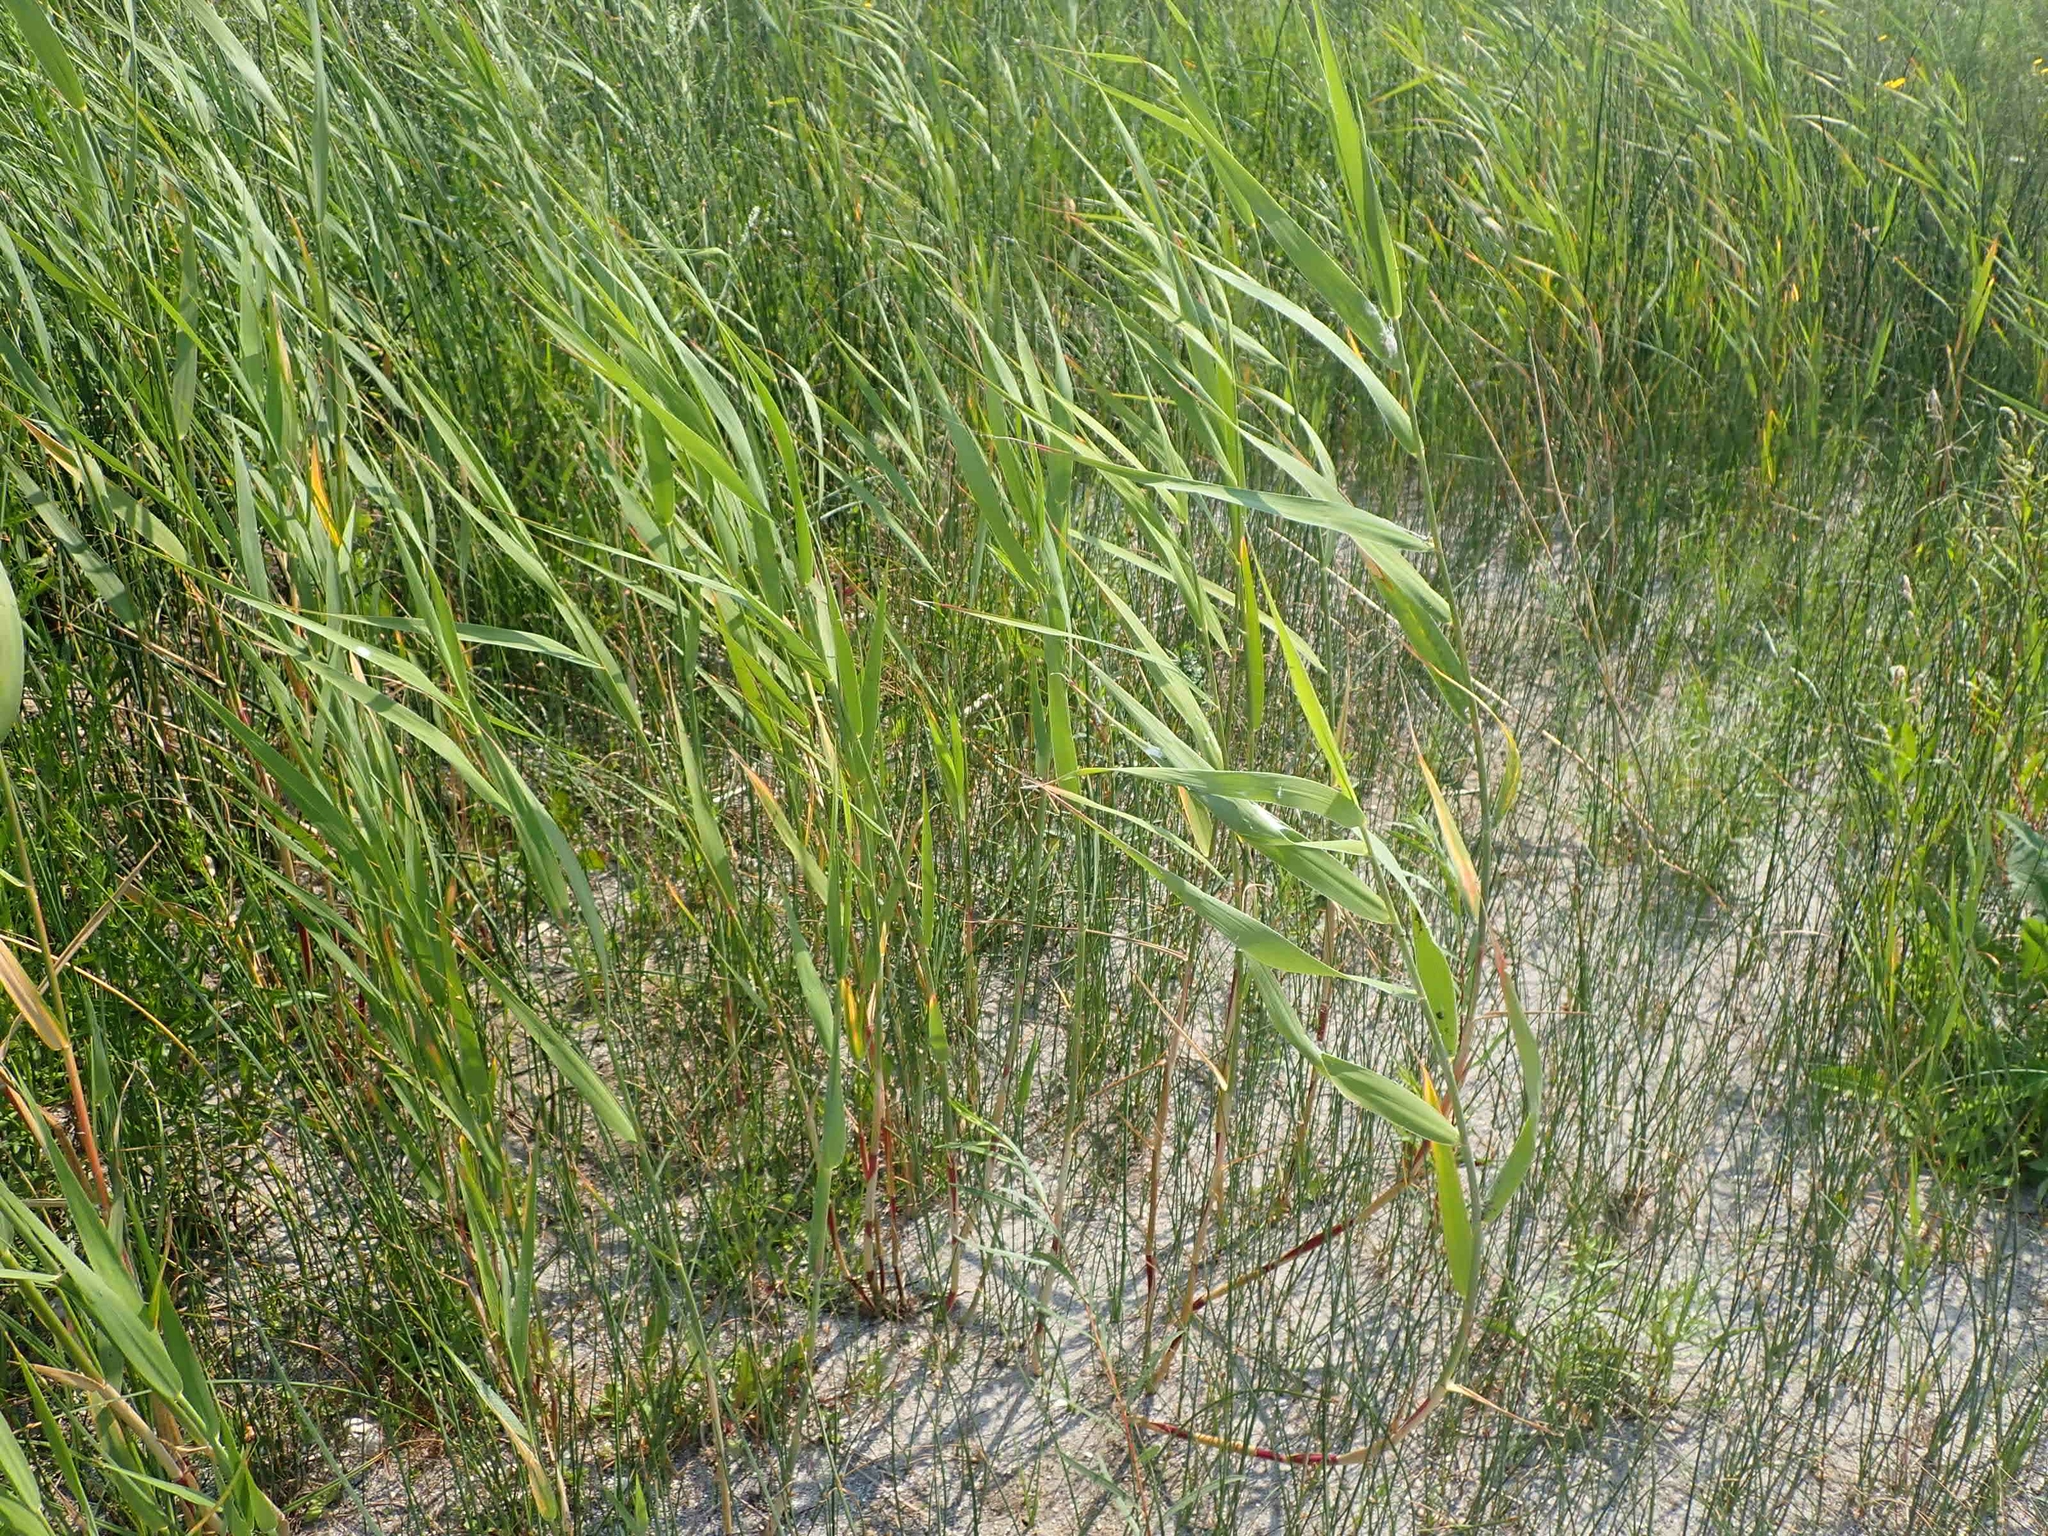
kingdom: Plantae
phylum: Tracheophyta
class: Liliopsida
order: Poales
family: Poaceae
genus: Phragmites
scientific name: Phragmites australis
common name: Common reed
